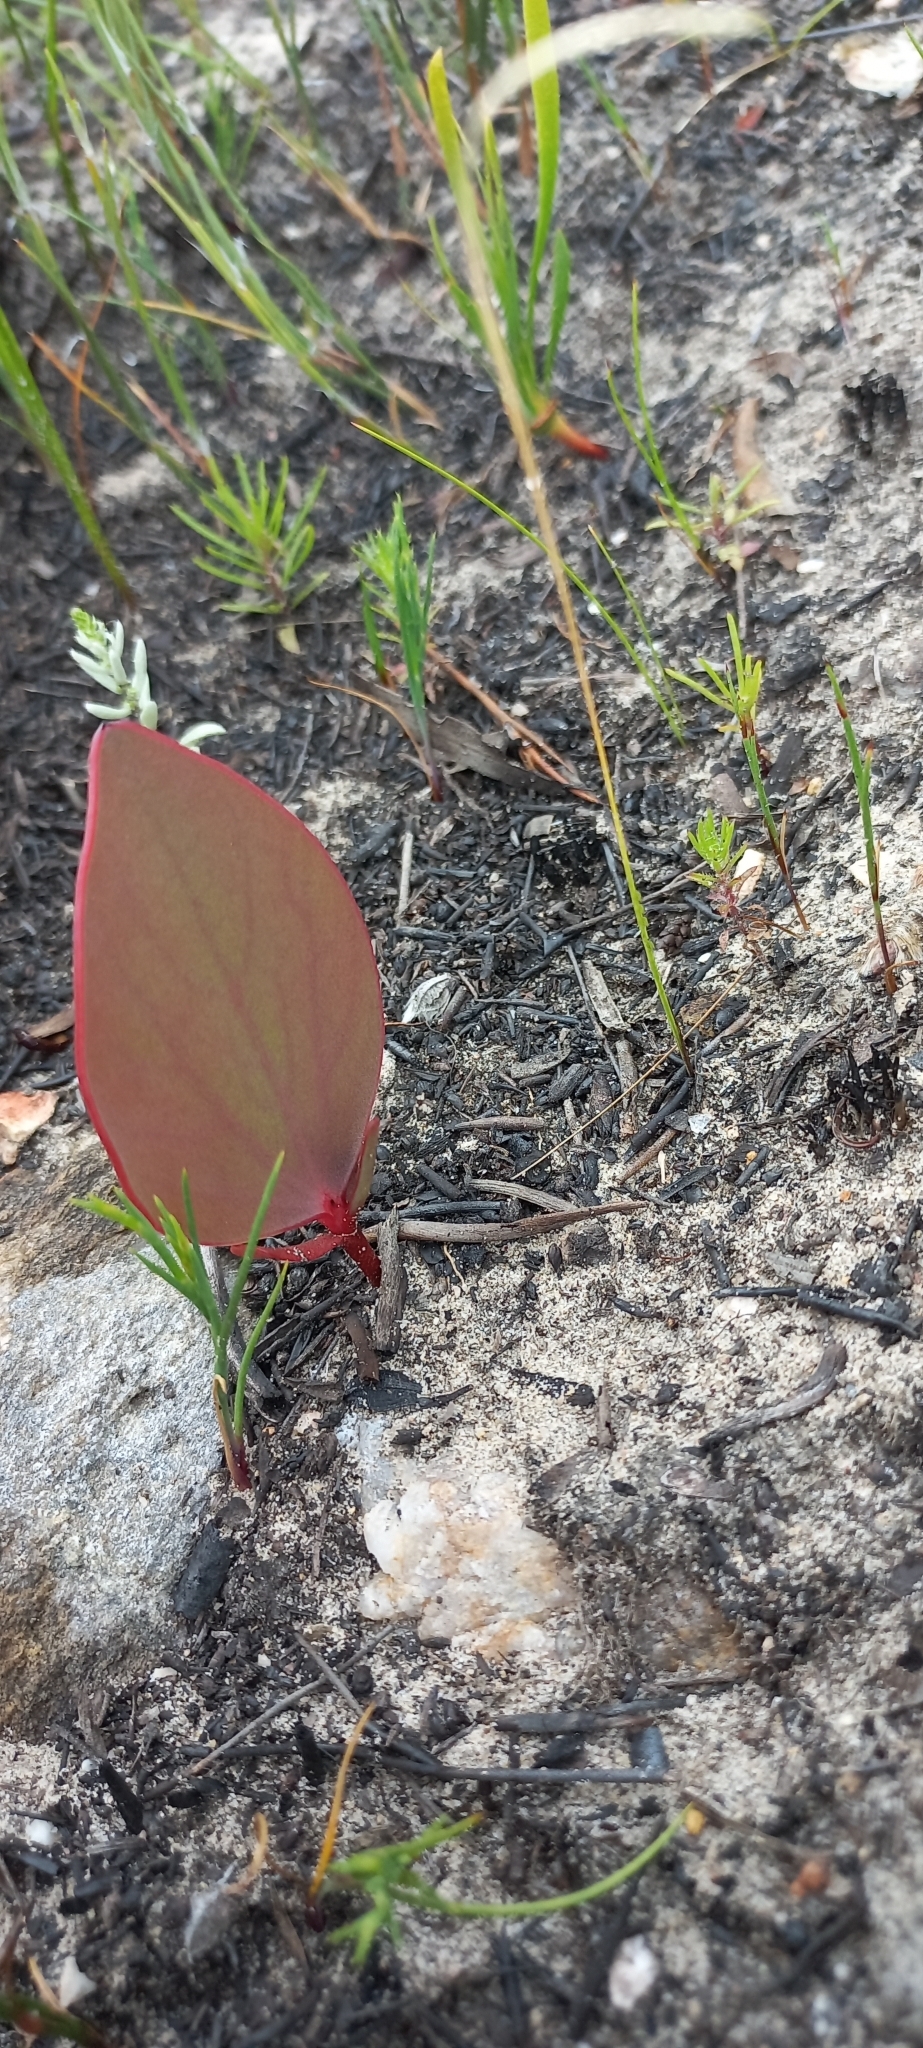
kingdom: Plantae
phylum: Tracheophyta
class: Magnoliopsida
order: Proteales
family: Proteaceae
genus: Protea
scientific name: Protea cordata
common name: Heart-leaf sugarbush
